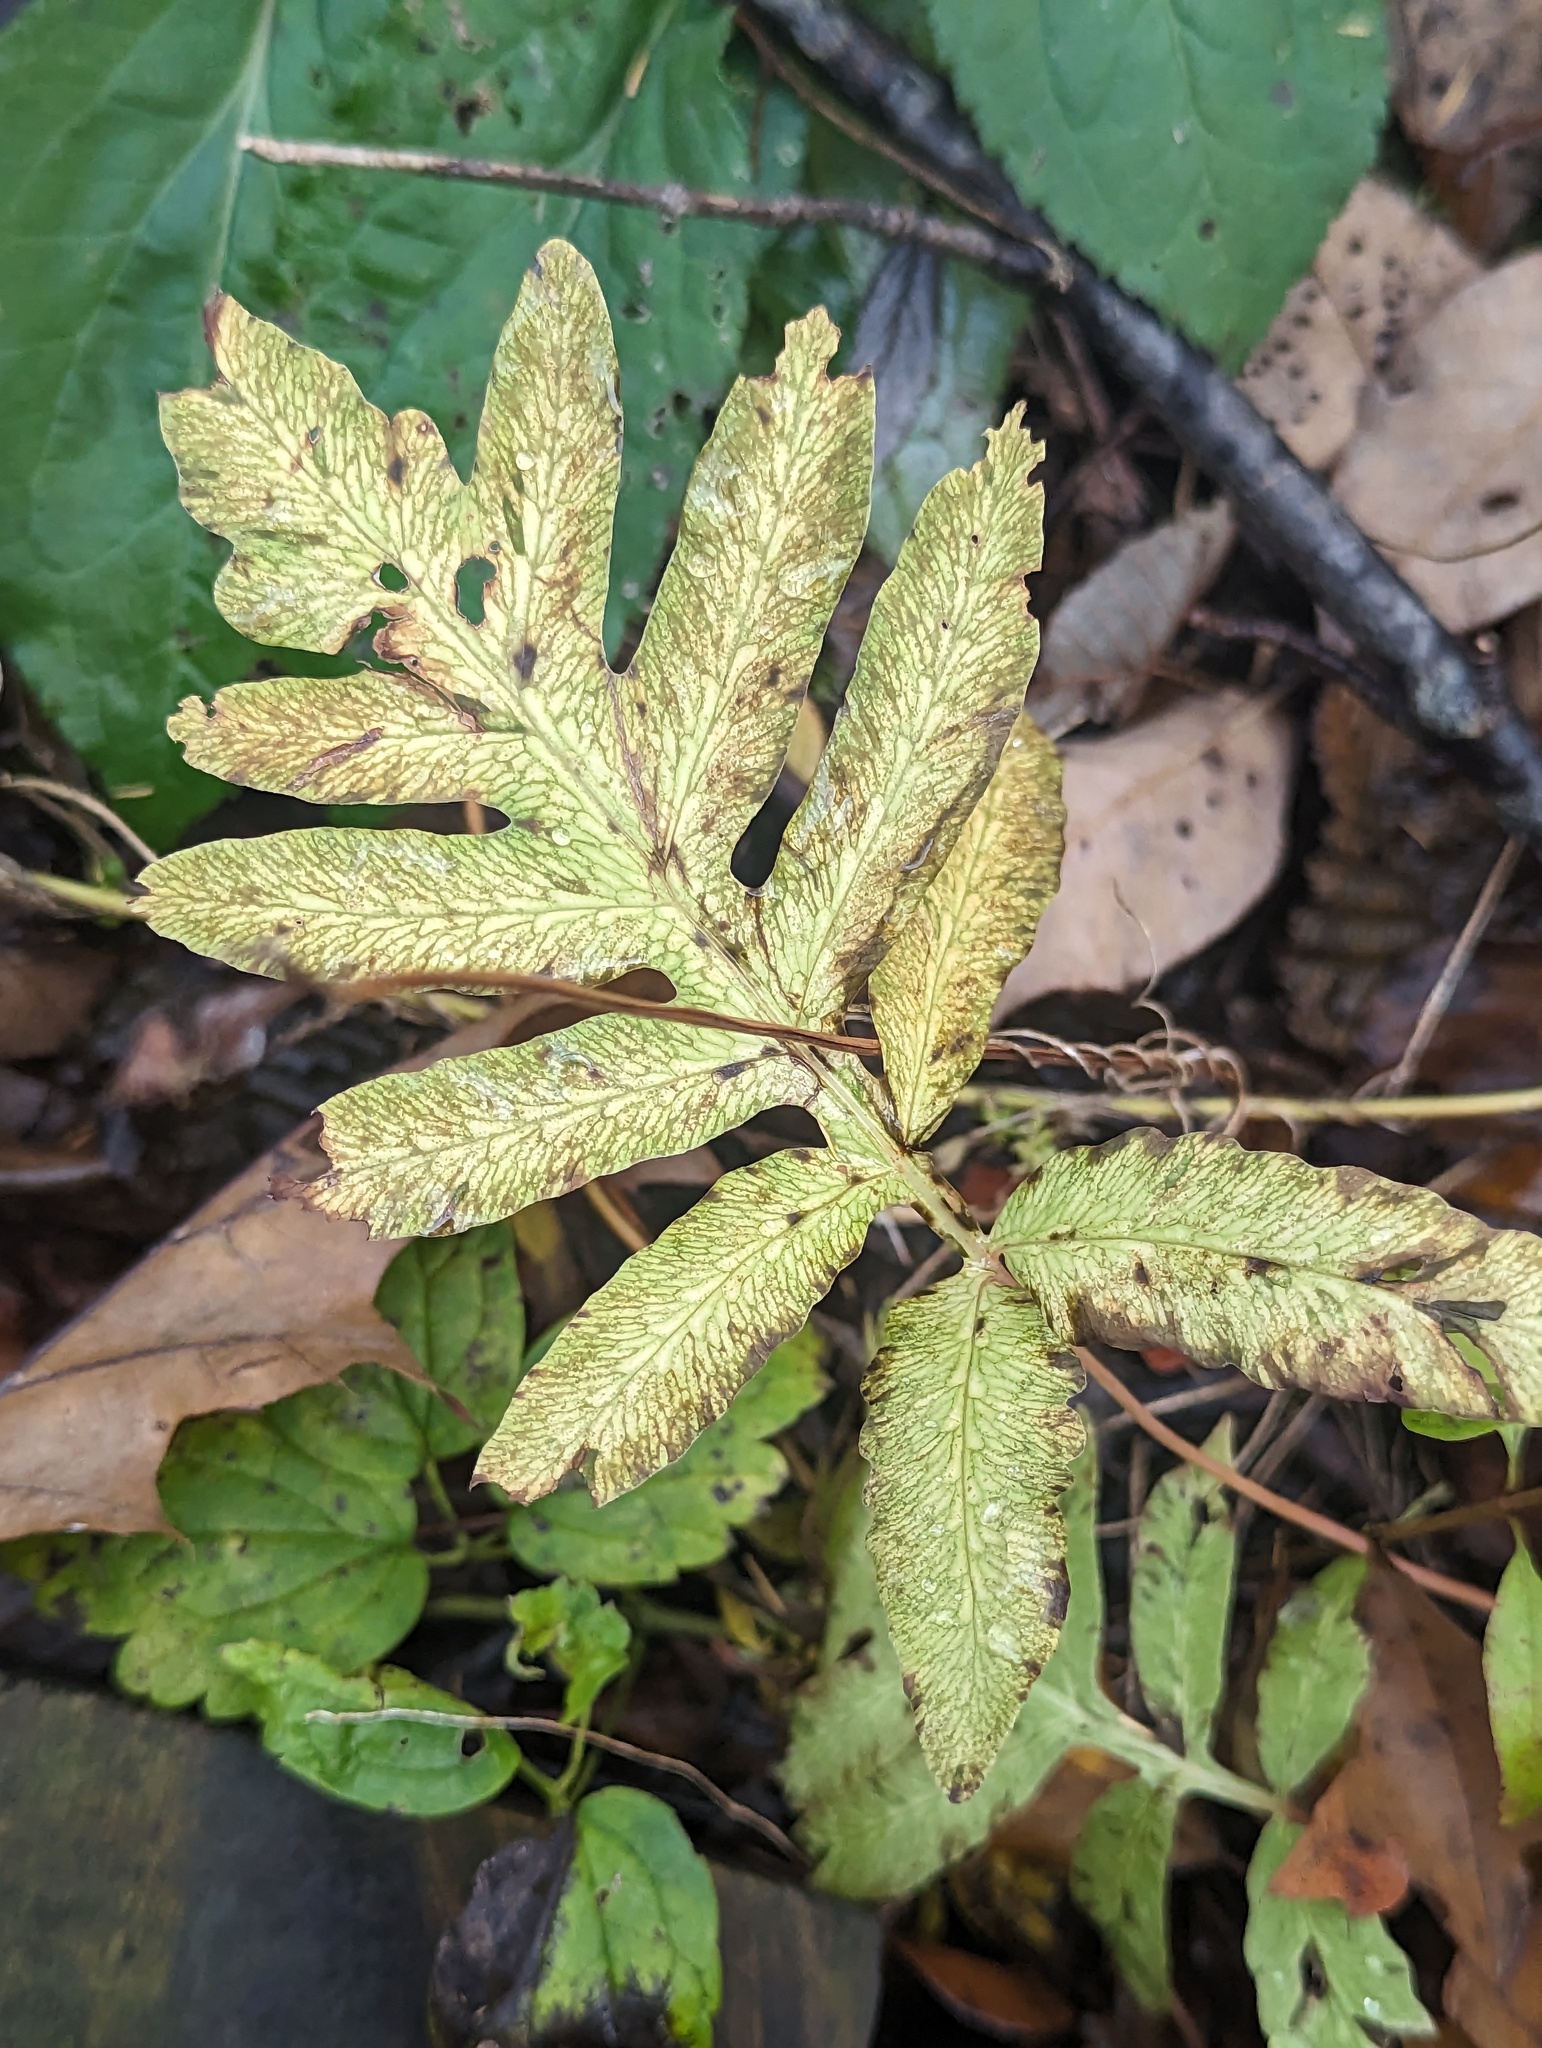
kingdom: Plantae
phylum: Tracheophyta
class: Polypodiopsida
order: Polypodiales
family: Onocleaceae
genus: Onoclea
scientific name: Onoclea sensibilis
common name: Sensitive fern
